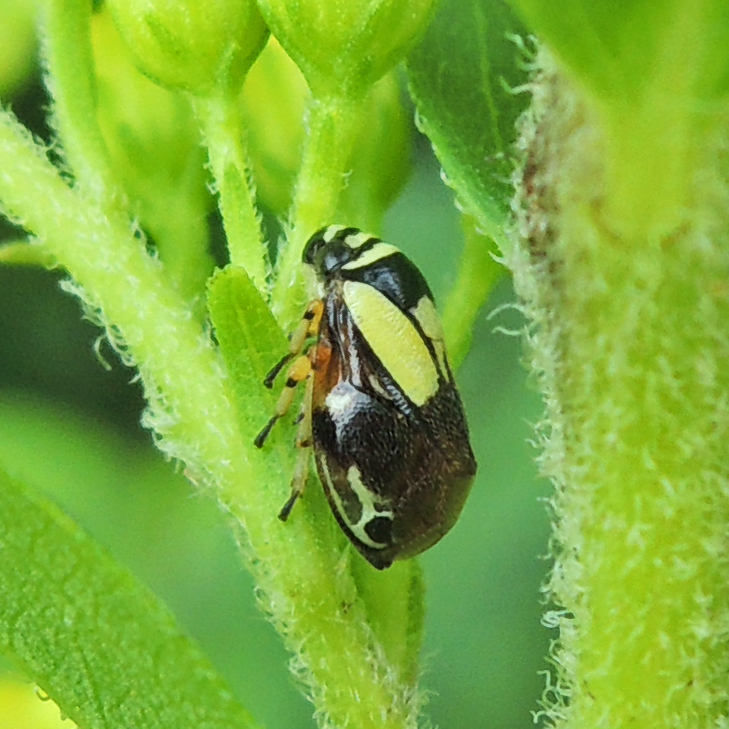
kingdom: Animalia
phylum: Arthropoda
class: Insecta
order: Hemiptera
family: Clastopteridae
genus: Clastoptera
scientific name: Clastoptera proteus
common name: Dogwood spittlebug
